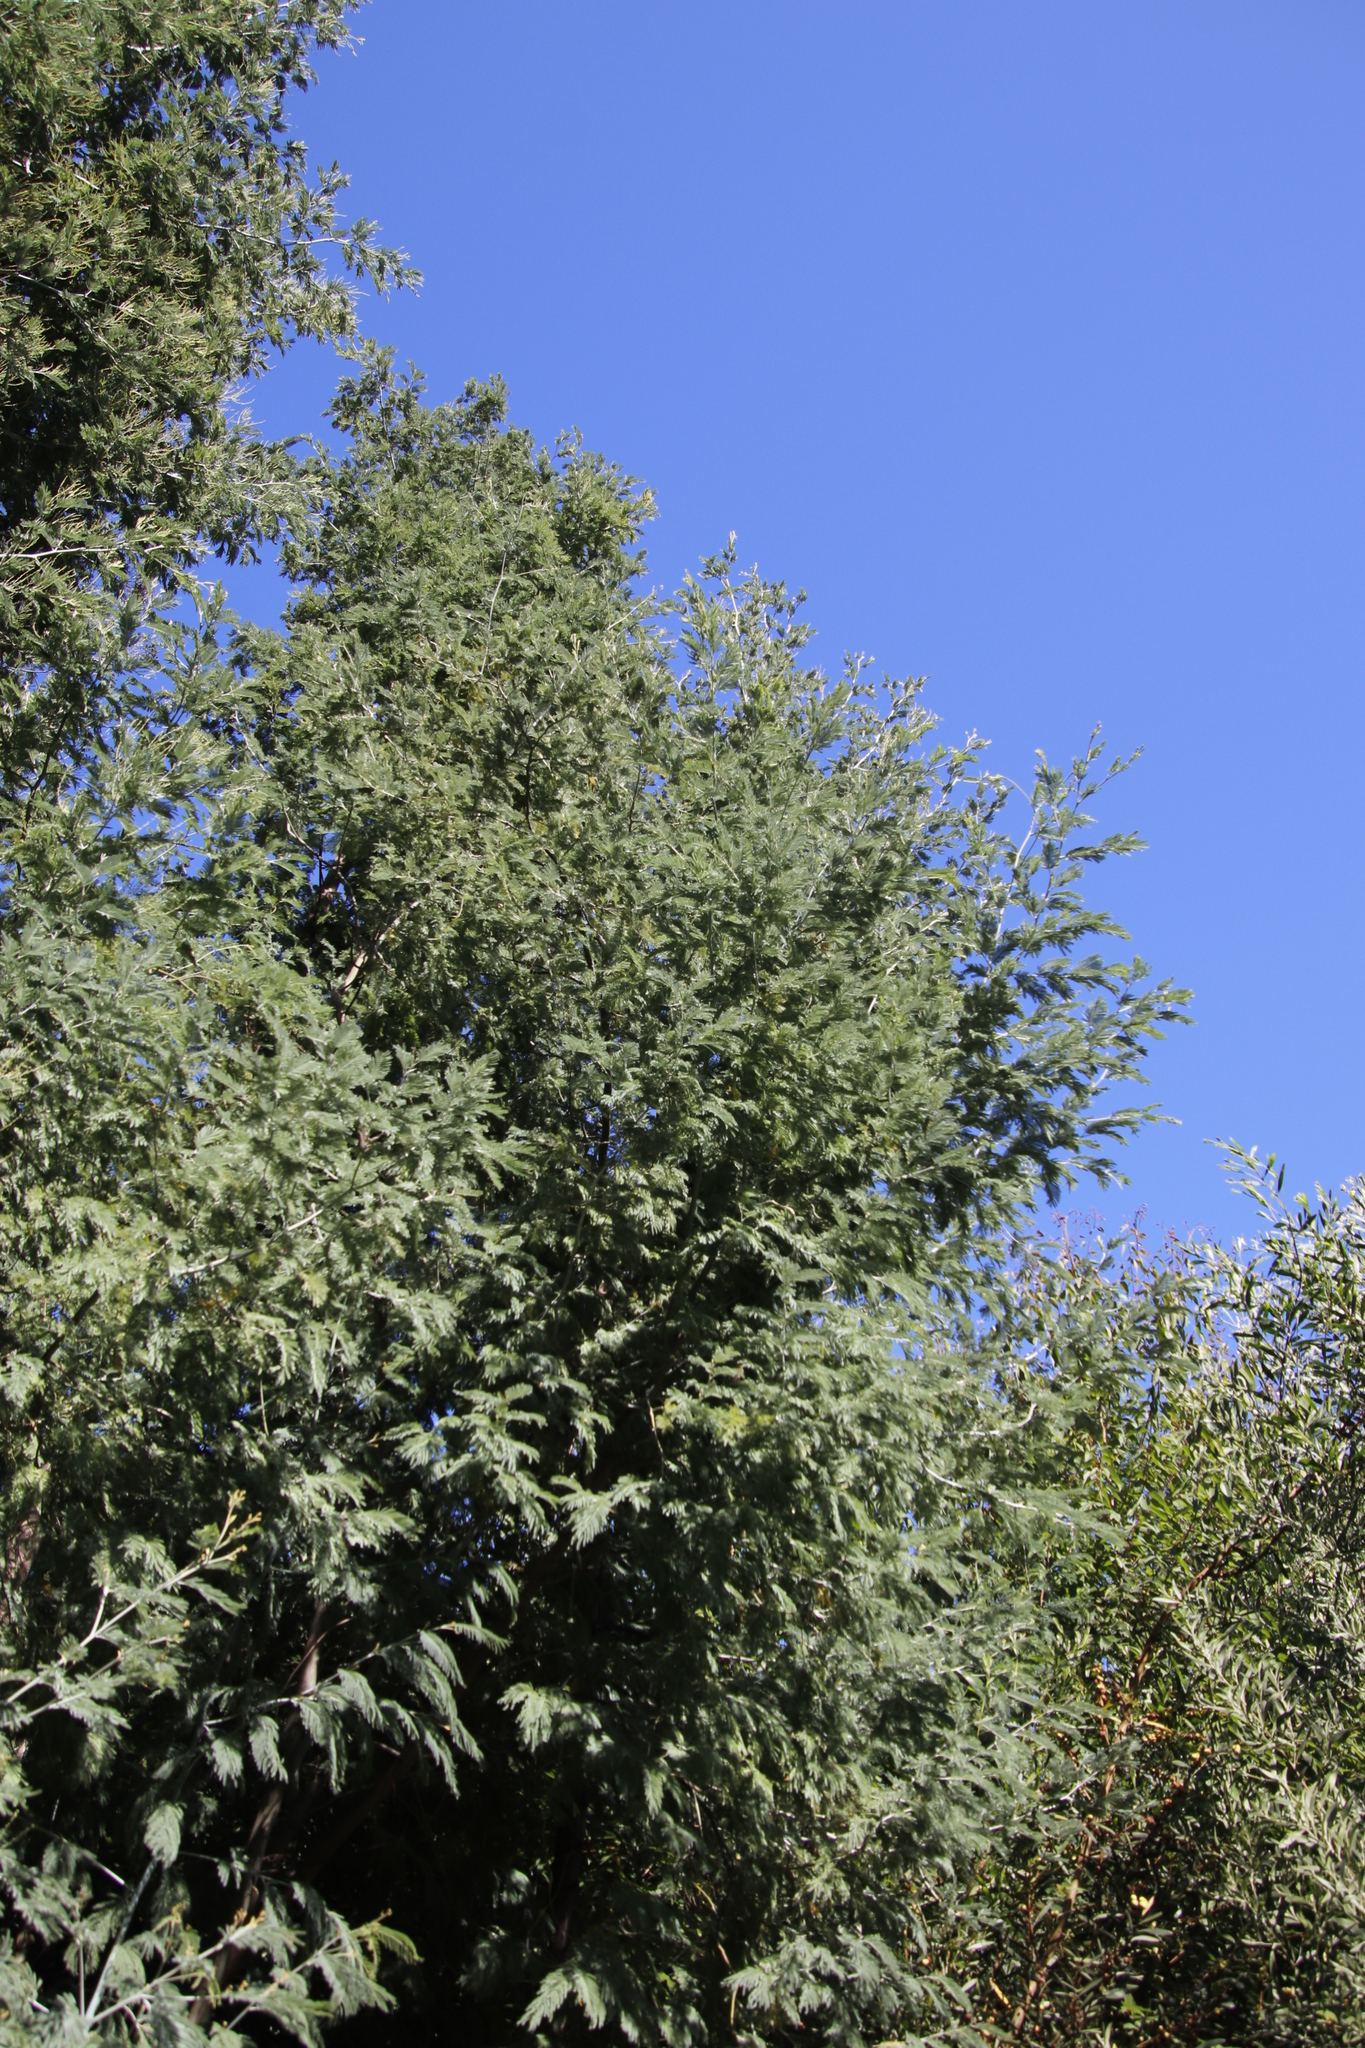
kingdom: Plantae
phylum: Tracheophyta
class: Magnoliopsida
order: Fabales
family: Fabaceae
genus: Acacia
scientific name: Acacia dealbata
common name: Silver wattle
